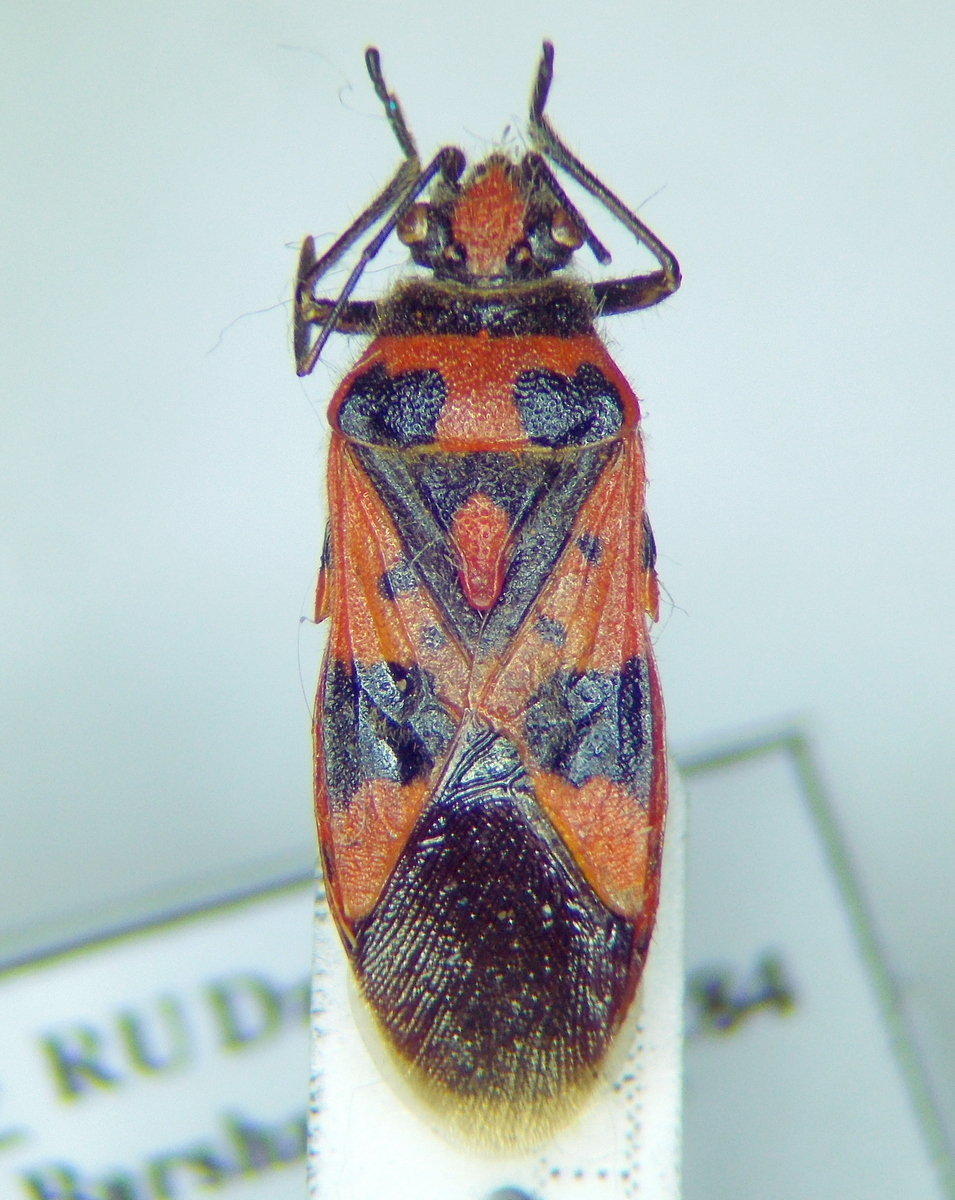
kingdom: Animalia
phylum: Arthropoda
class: Insecta
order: Hemiptera
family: Rhopalidae
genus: Corizus
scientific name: Corizus hyoscyami
